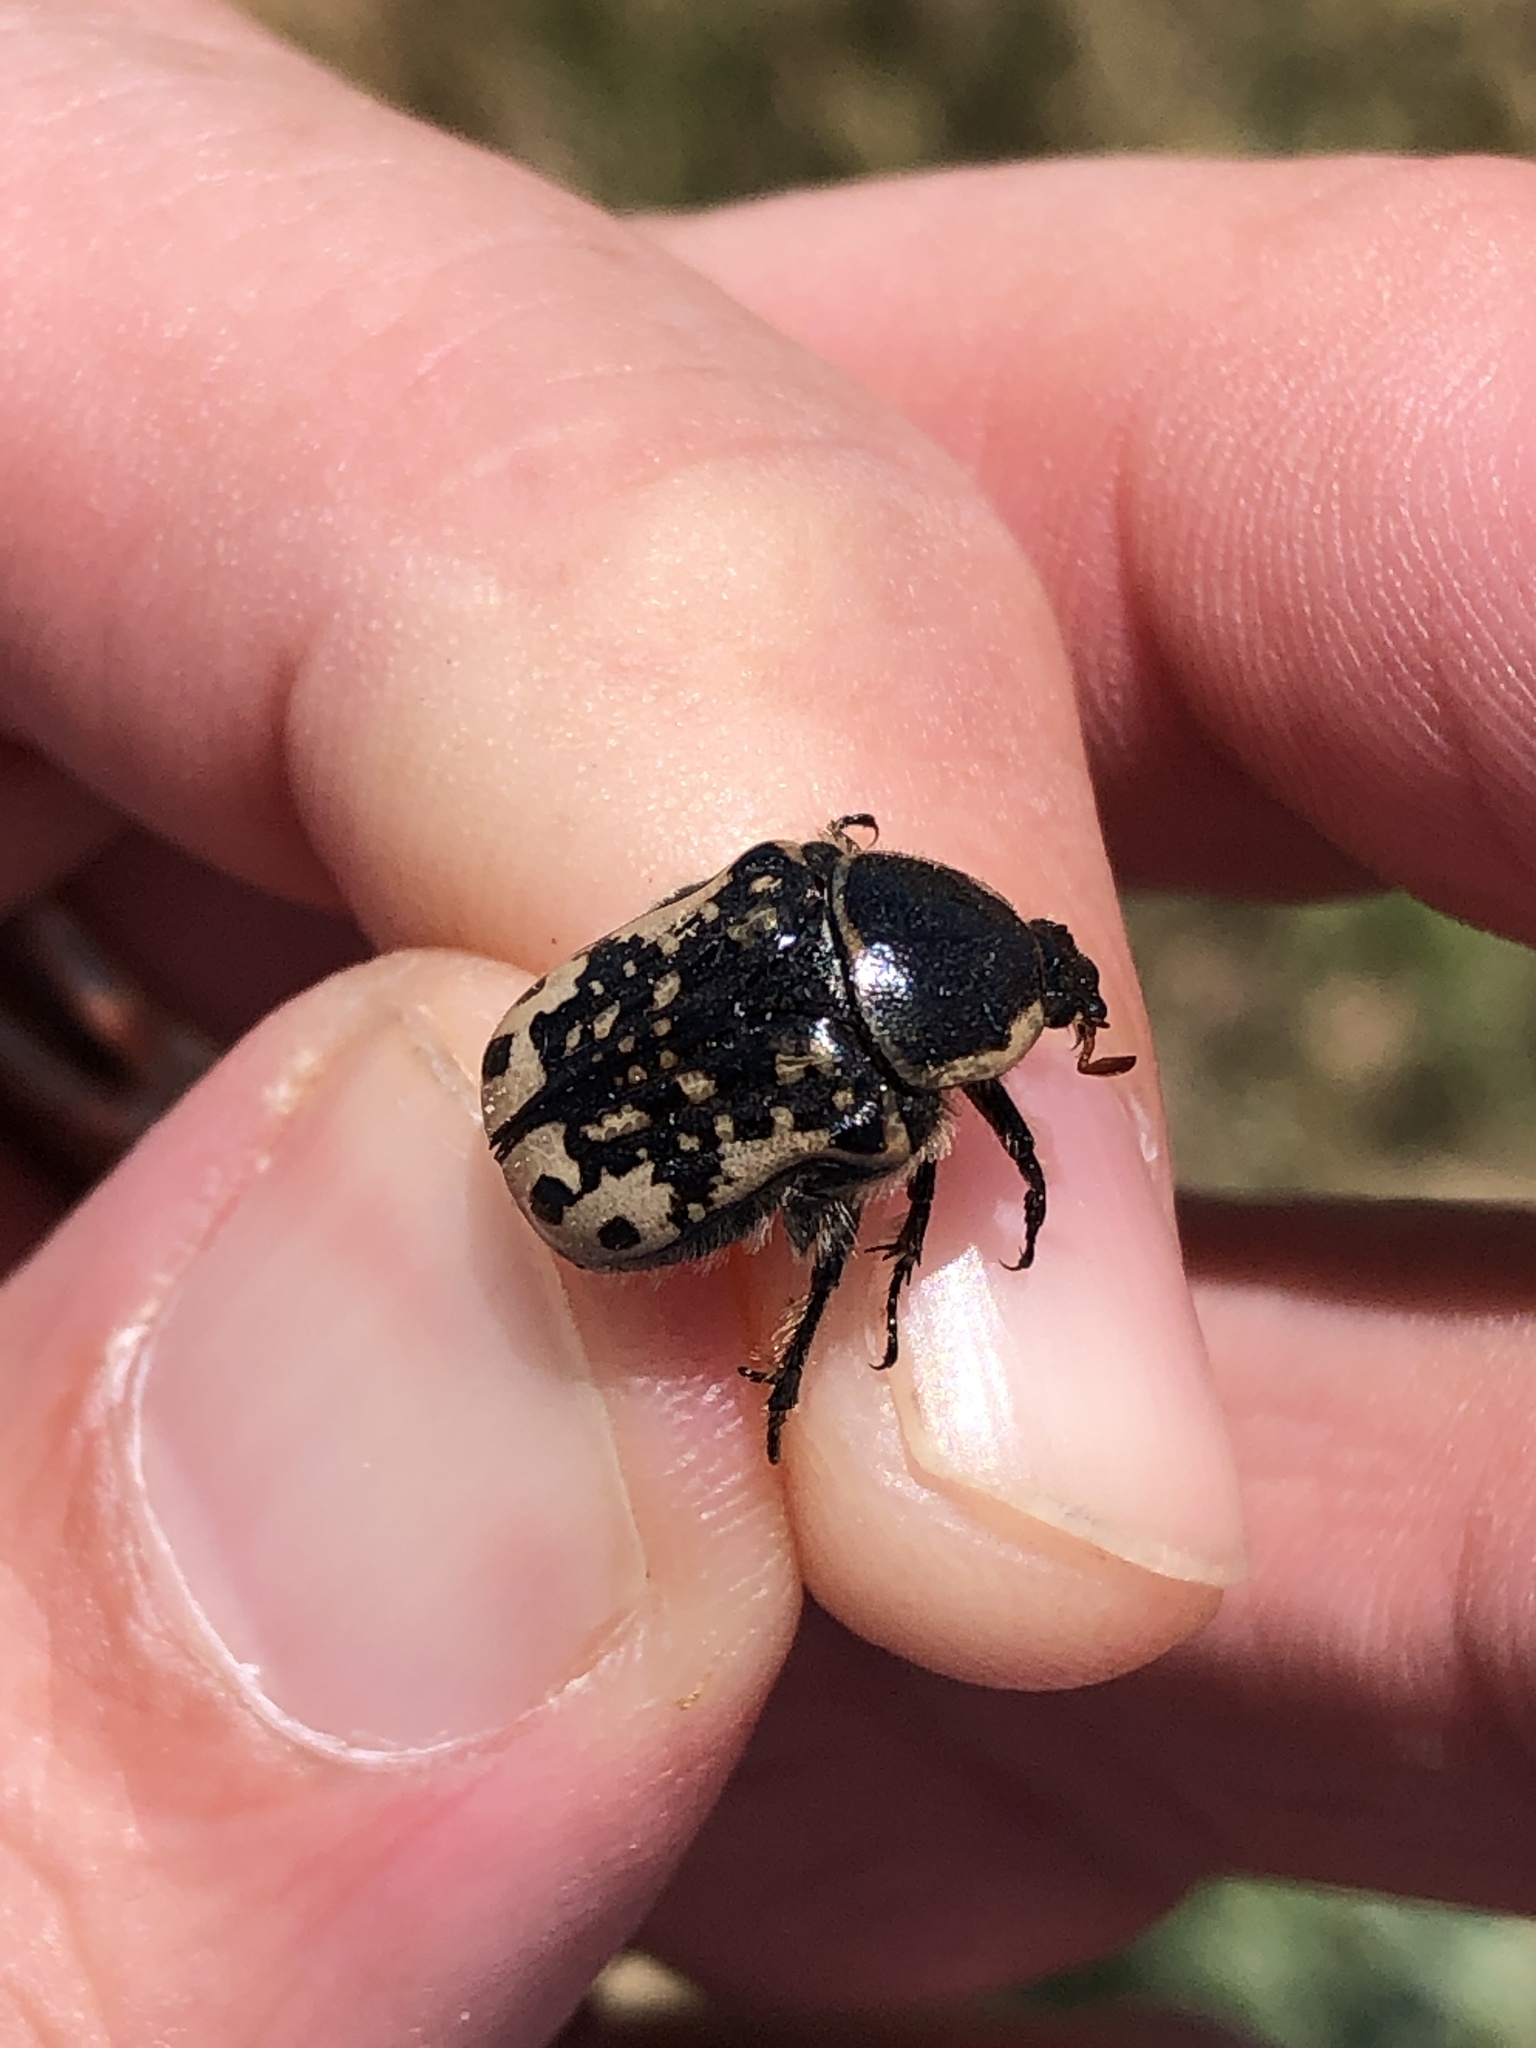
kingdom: Animalia
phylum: Arthropoda
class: Insecta
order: Coleoptera
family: Scarabaeidae
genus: Euphoria
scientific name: Euphoria kernii
